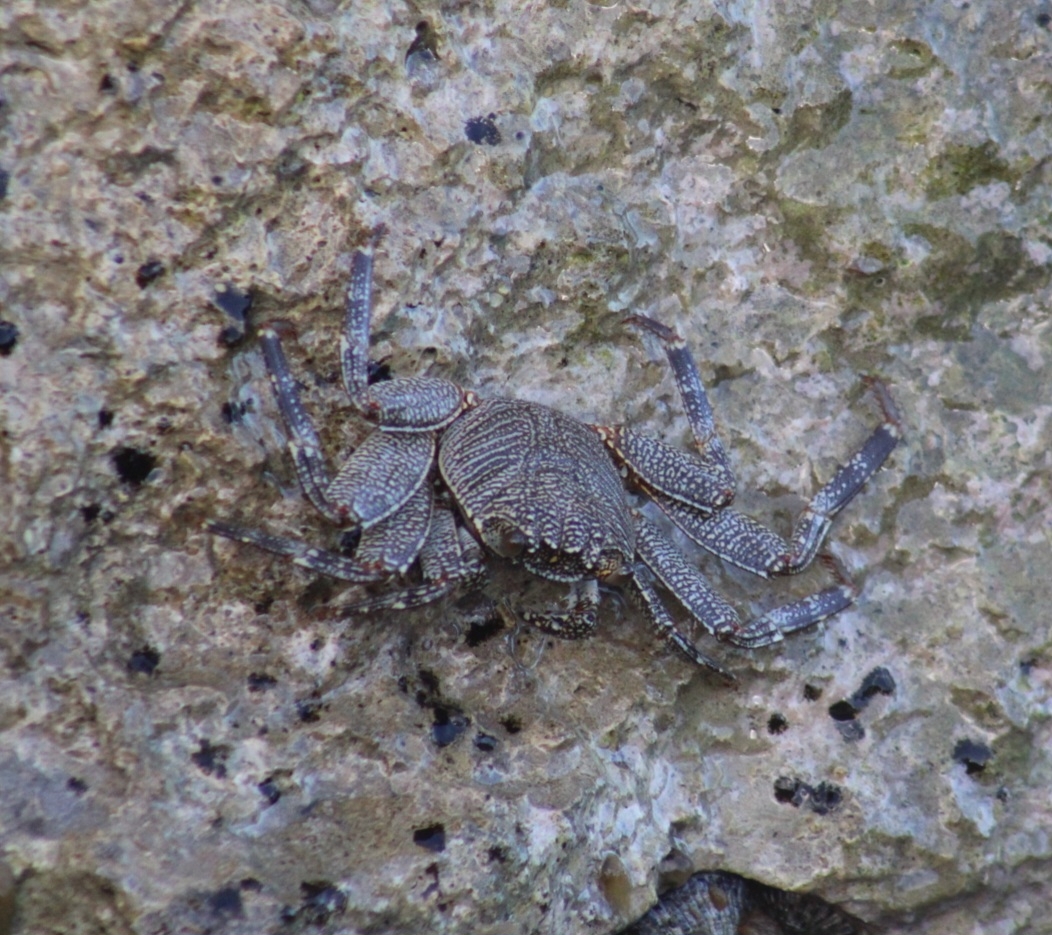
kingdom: Animalia
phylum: Arthropoda
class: Malacostraca
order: Decapoda
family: Grapsidae
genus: Grapsus
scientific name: Grapsus tenuicrustatus
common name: Natal lightfoot crab
